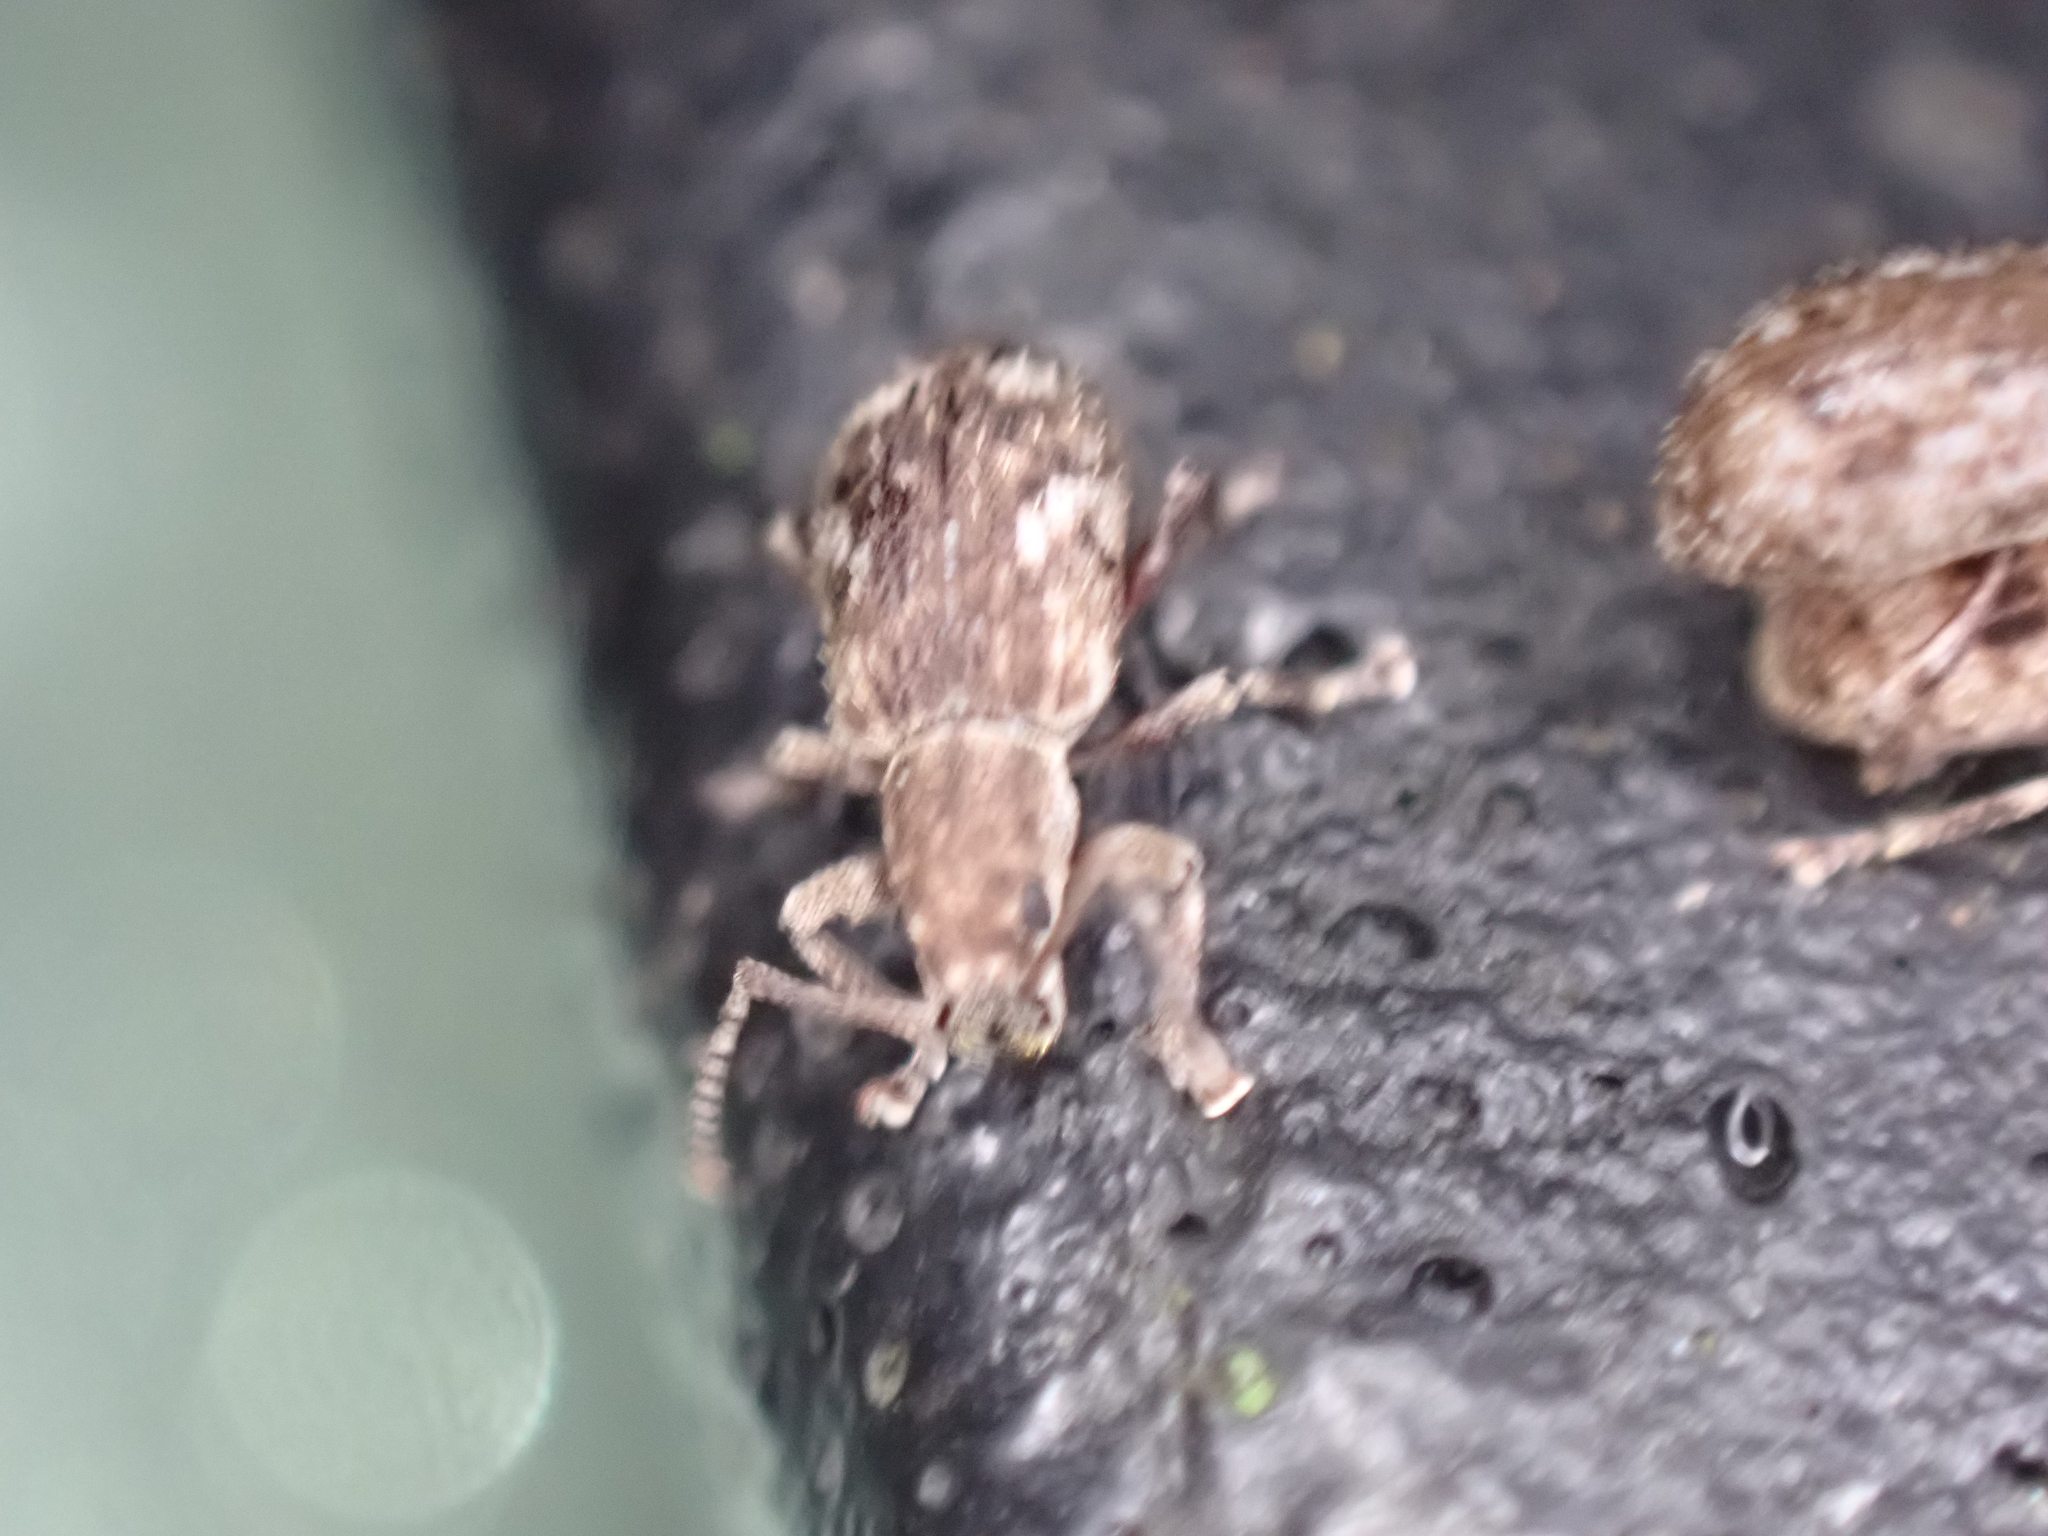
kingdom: Animalia
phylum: Arthropoda
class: Insecta
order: Coleoptera
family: Curculionidae
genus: Pseudoedophrys
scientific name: Pseudoedophrys hilleri
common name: Weevil
